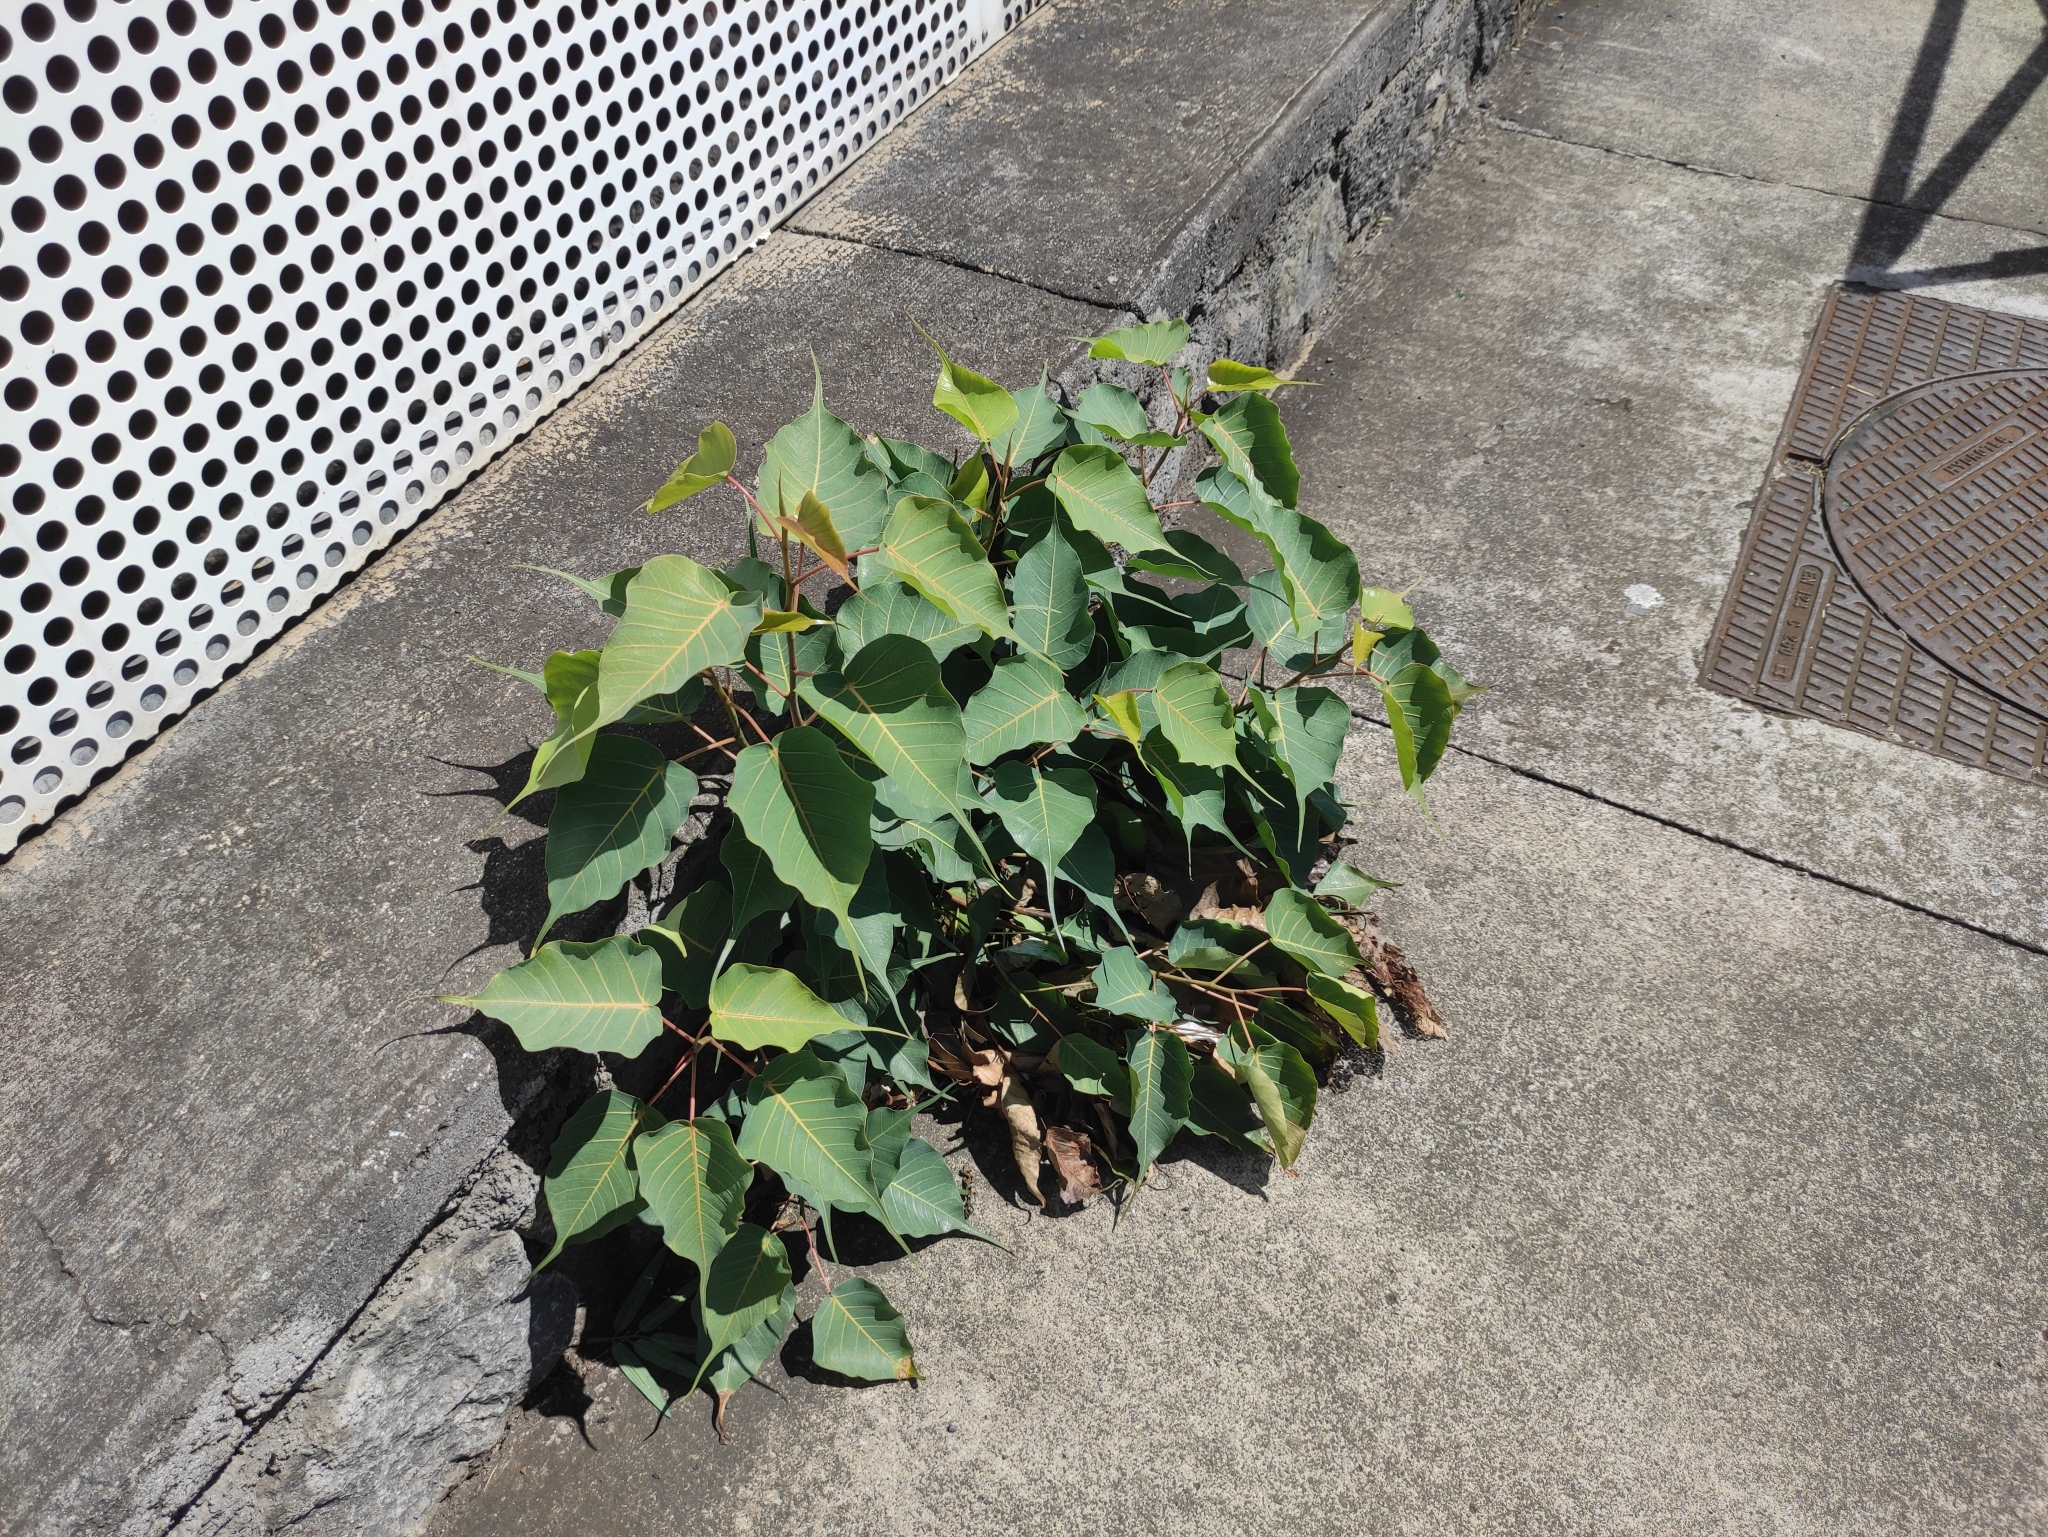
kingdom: Plantae
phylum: Tracheophyta
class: Magnoliopsida
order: Rosales
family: Moraceae
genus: Ficus
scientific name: Ficus religiosa
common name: Bodhi tree
